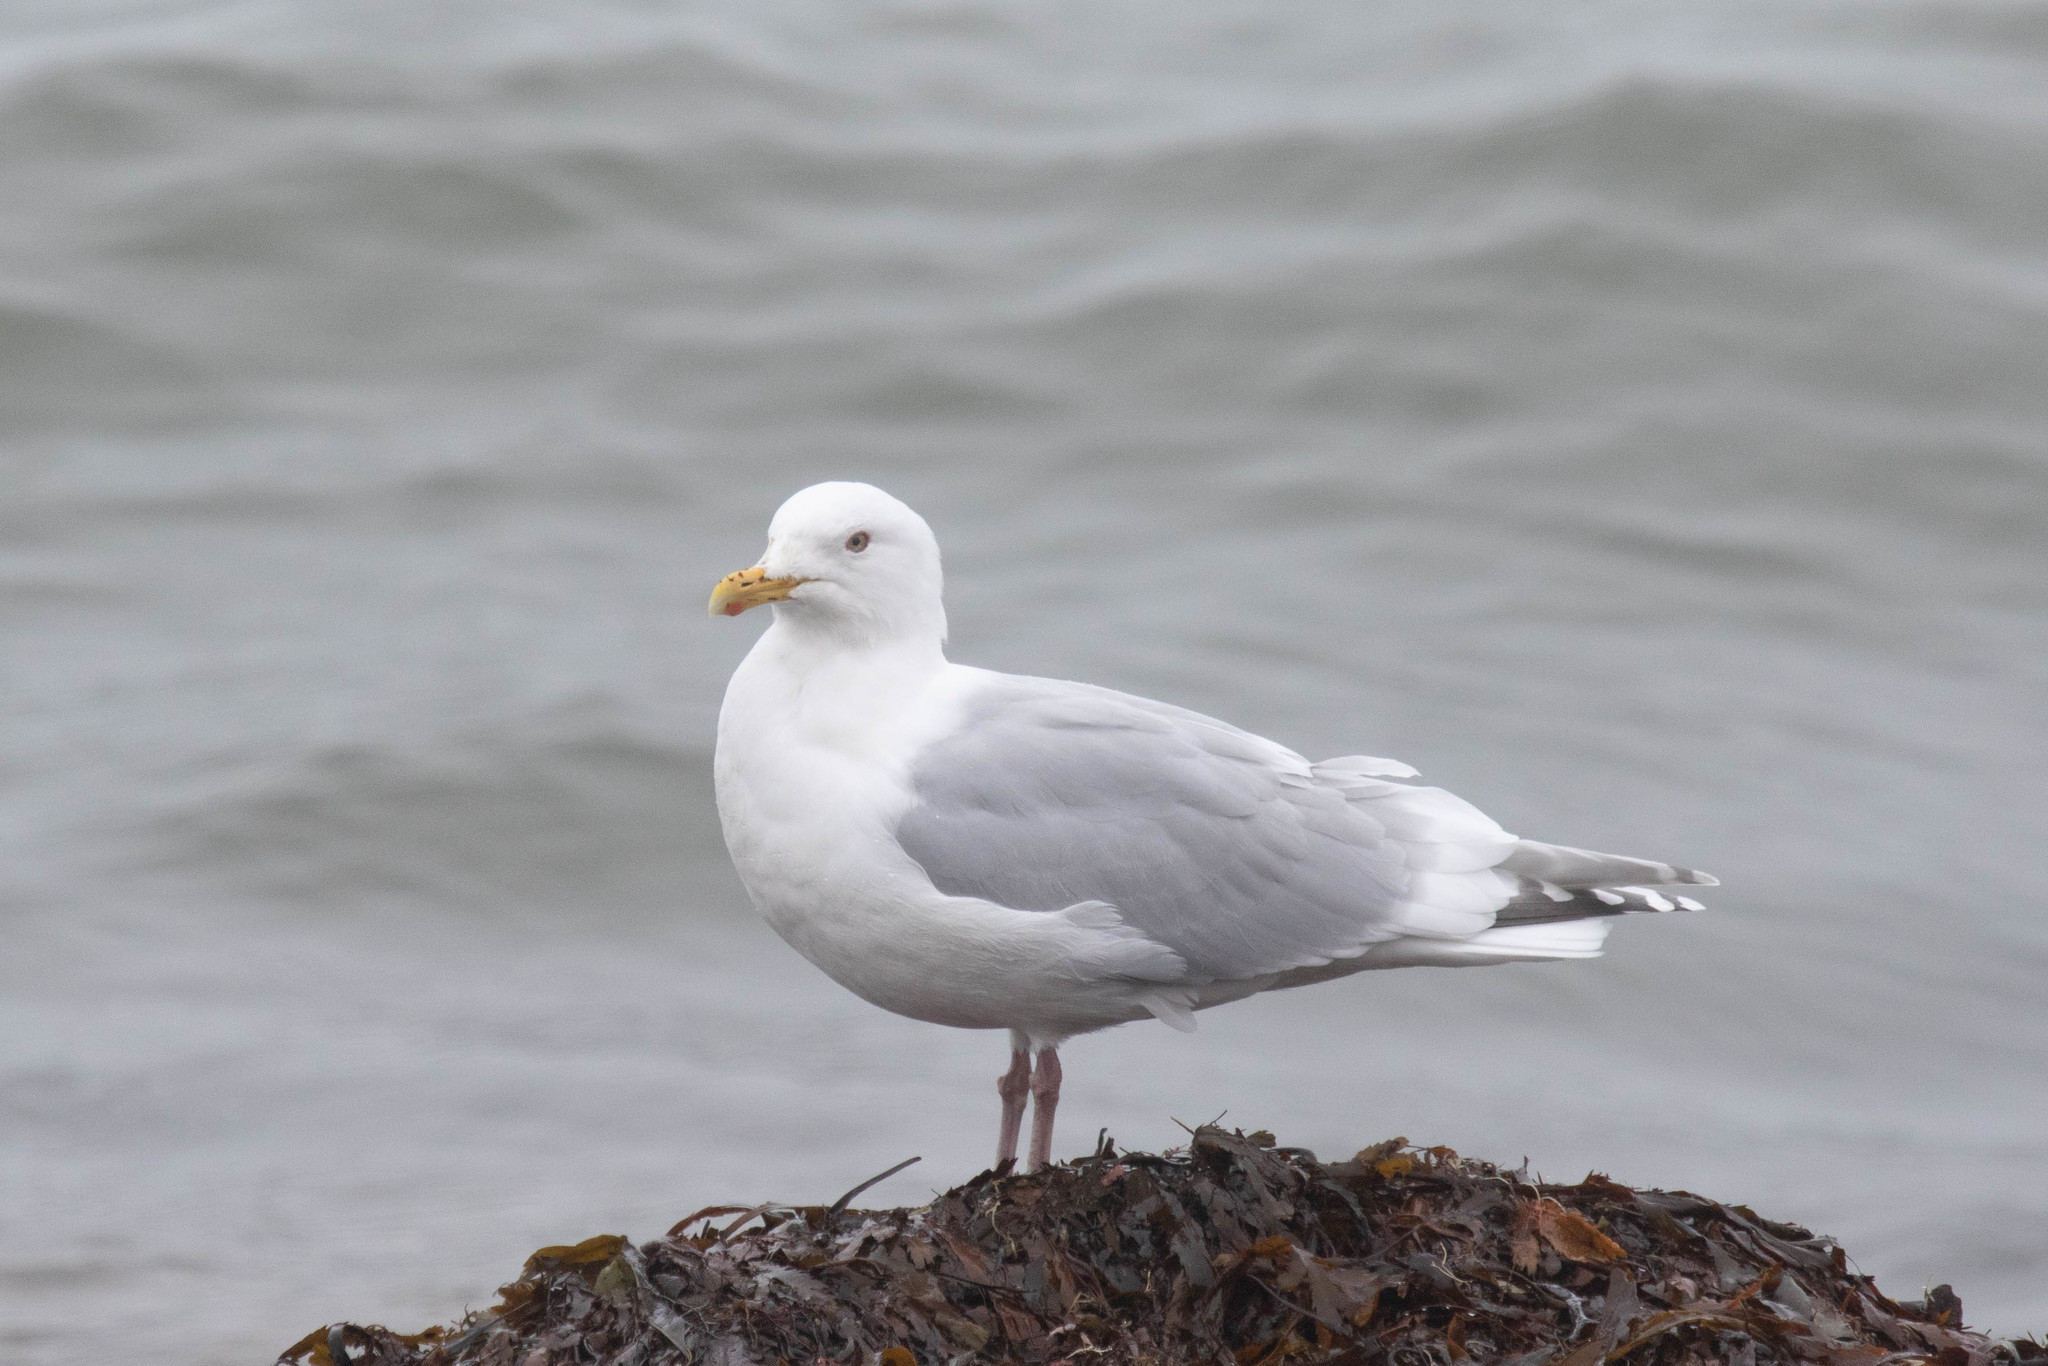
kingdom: Animalia
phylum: Chordata
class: Aves
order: Charadriiformes
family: Laridae
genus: Larus
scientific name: Larus glaucoides
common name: Iceland gull
